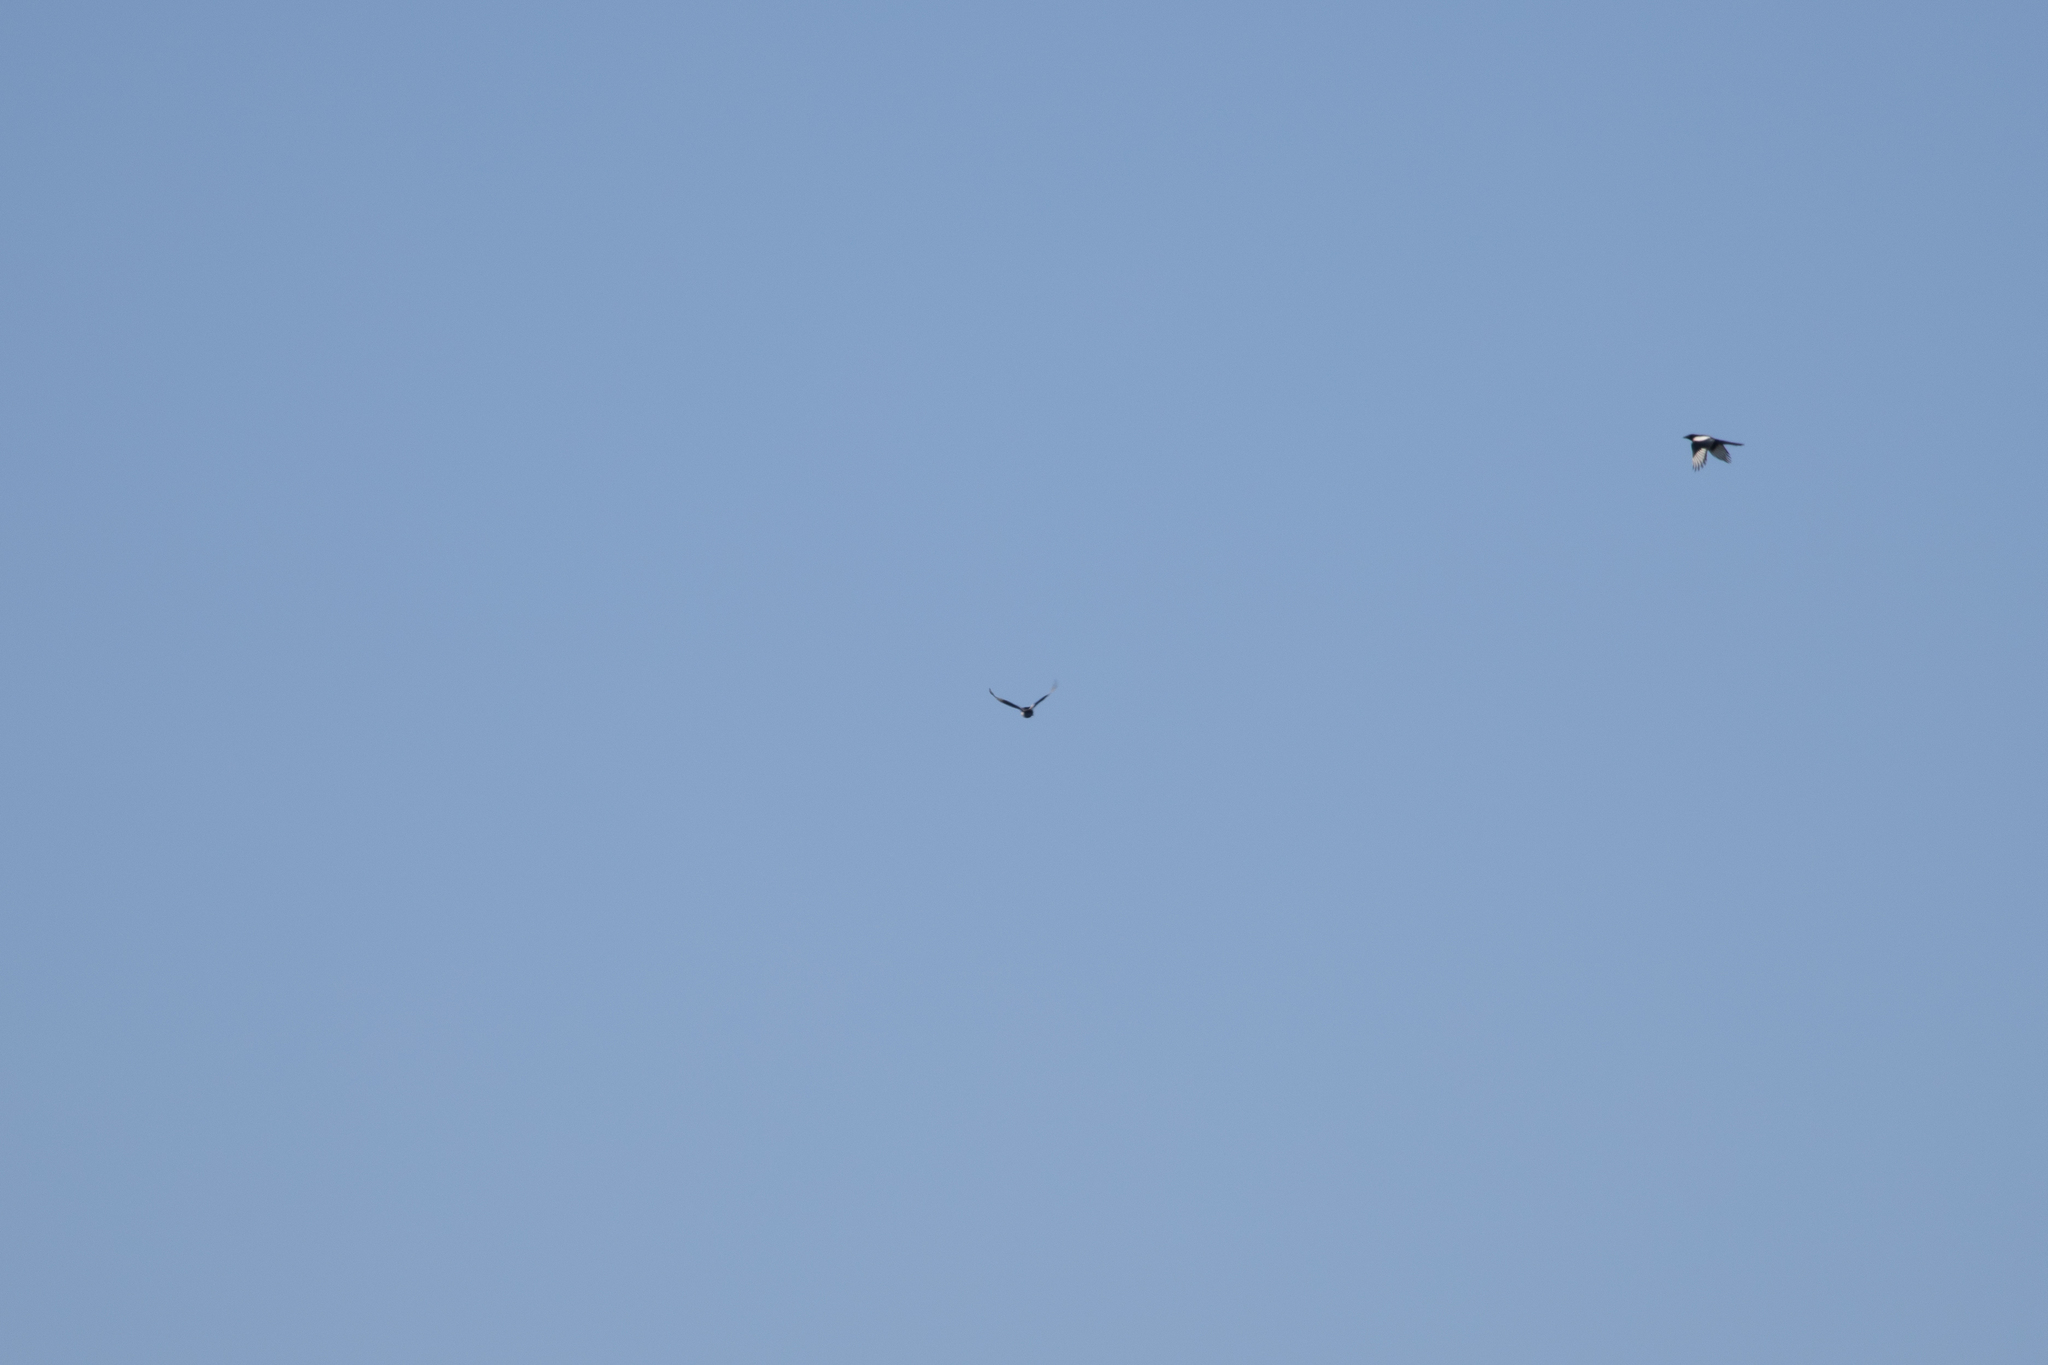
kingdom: Animalia
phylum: Chordata
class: Aves
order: Passeriformes
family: Corvidae
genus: Pica
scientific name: Pica pica
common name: Eurasian magpie
